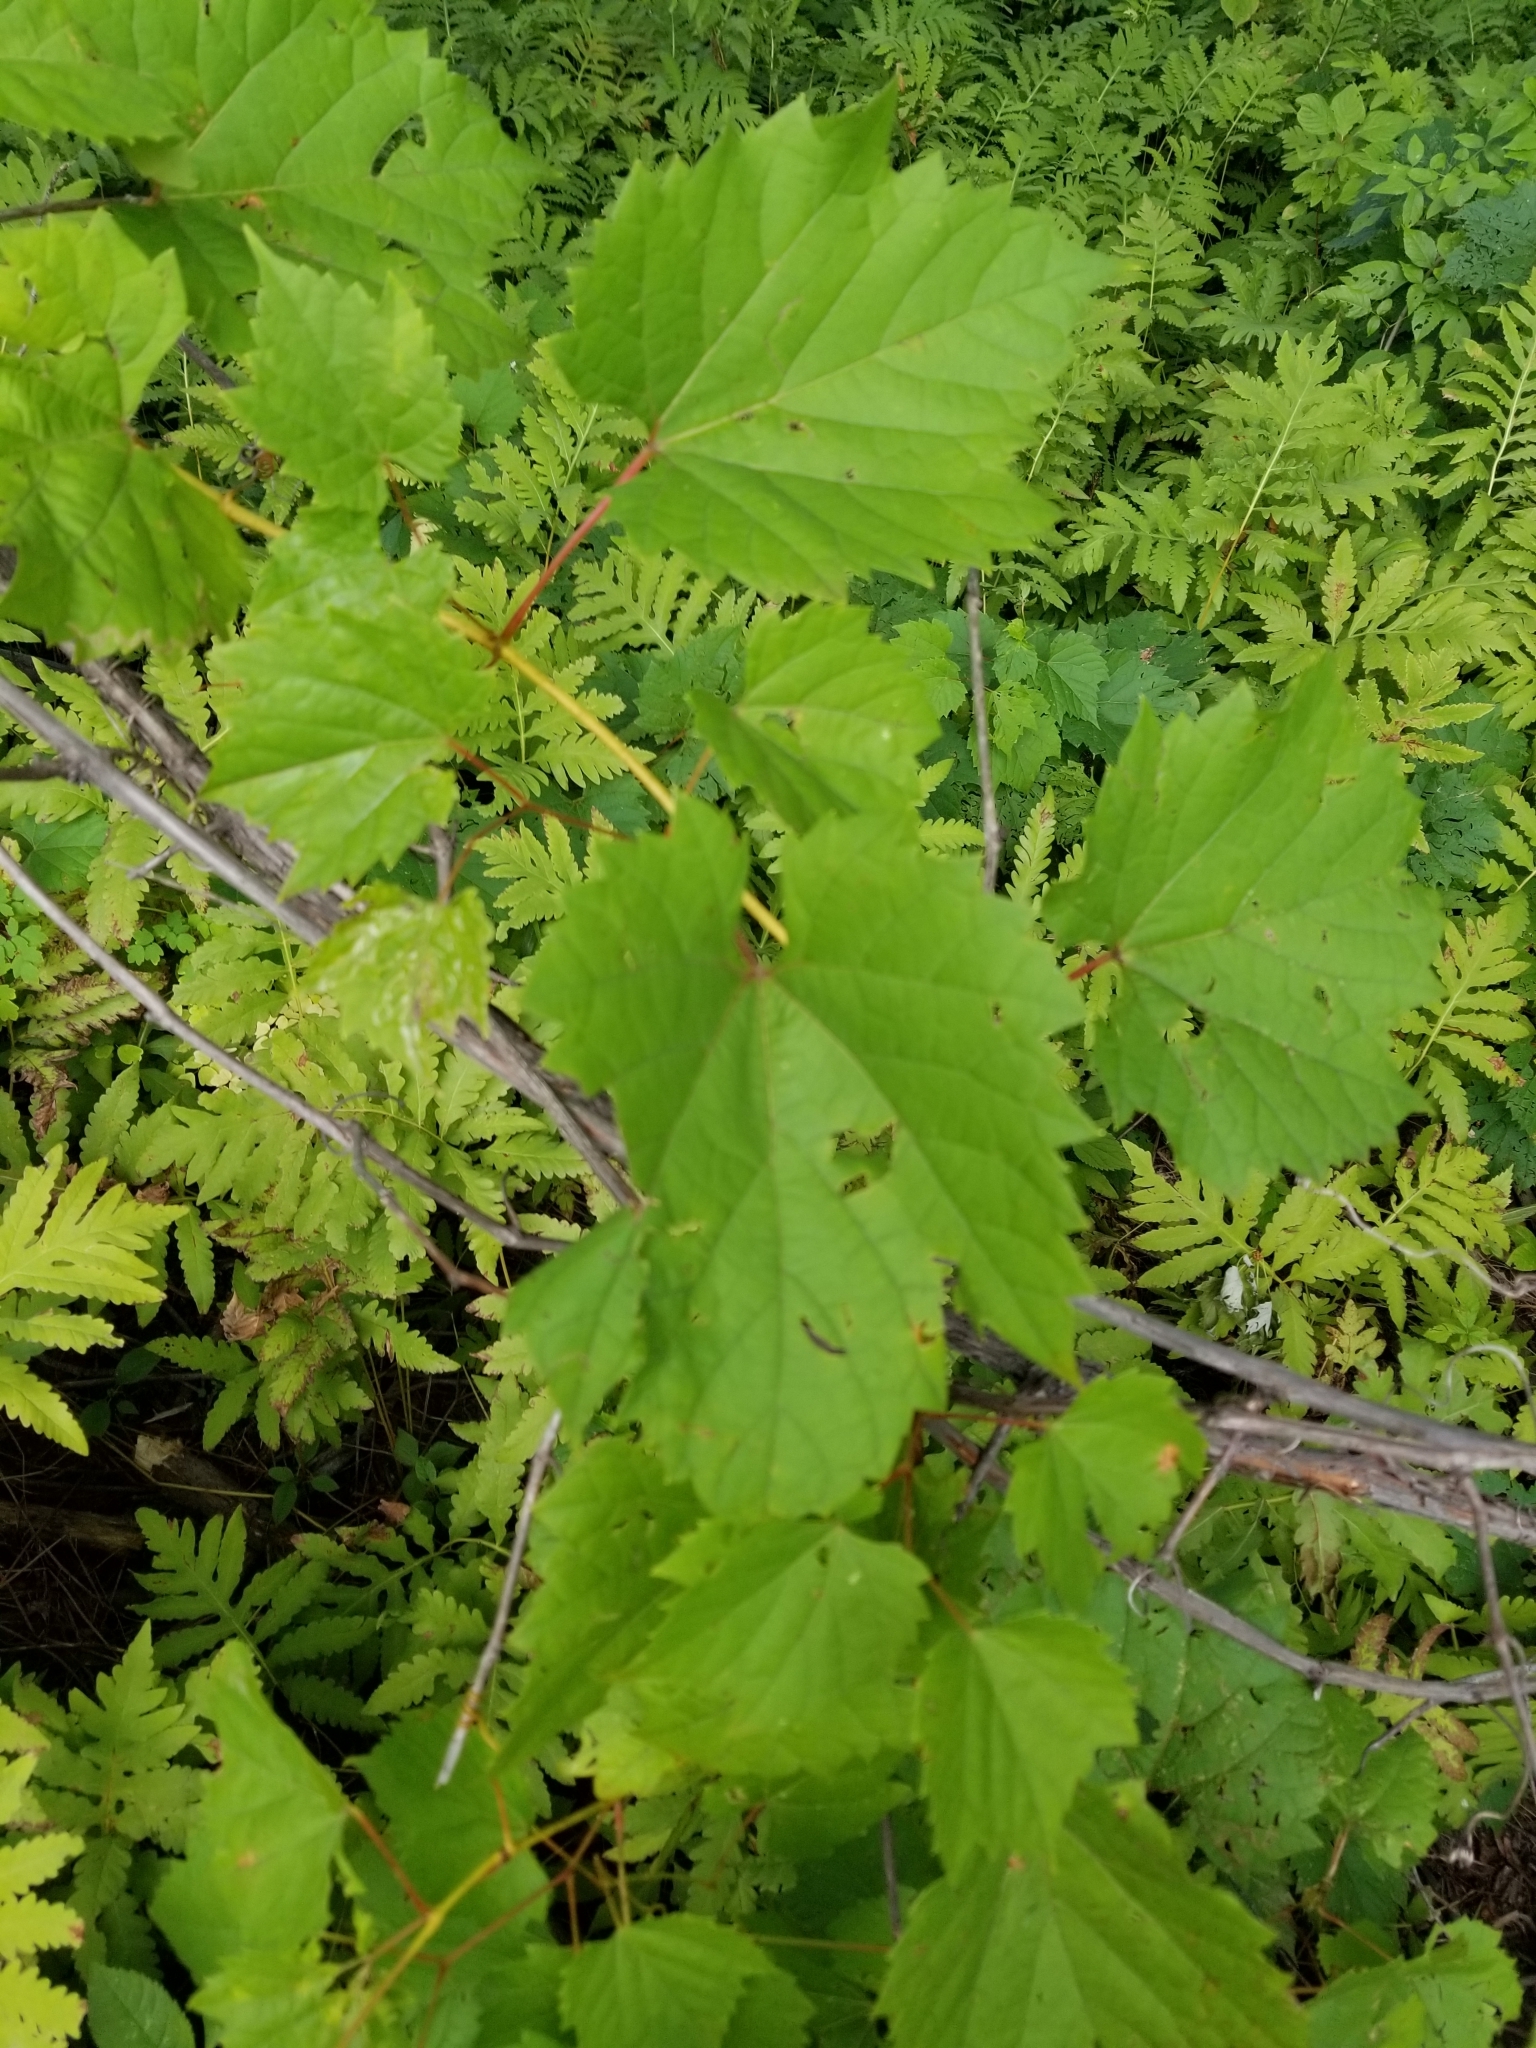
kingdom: Plantae
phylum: Tracheophyta
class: Magnoliopsida
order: Vitales
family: Vitaceae
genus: Vitis
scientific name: Vitis riparia
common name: Frost grape
